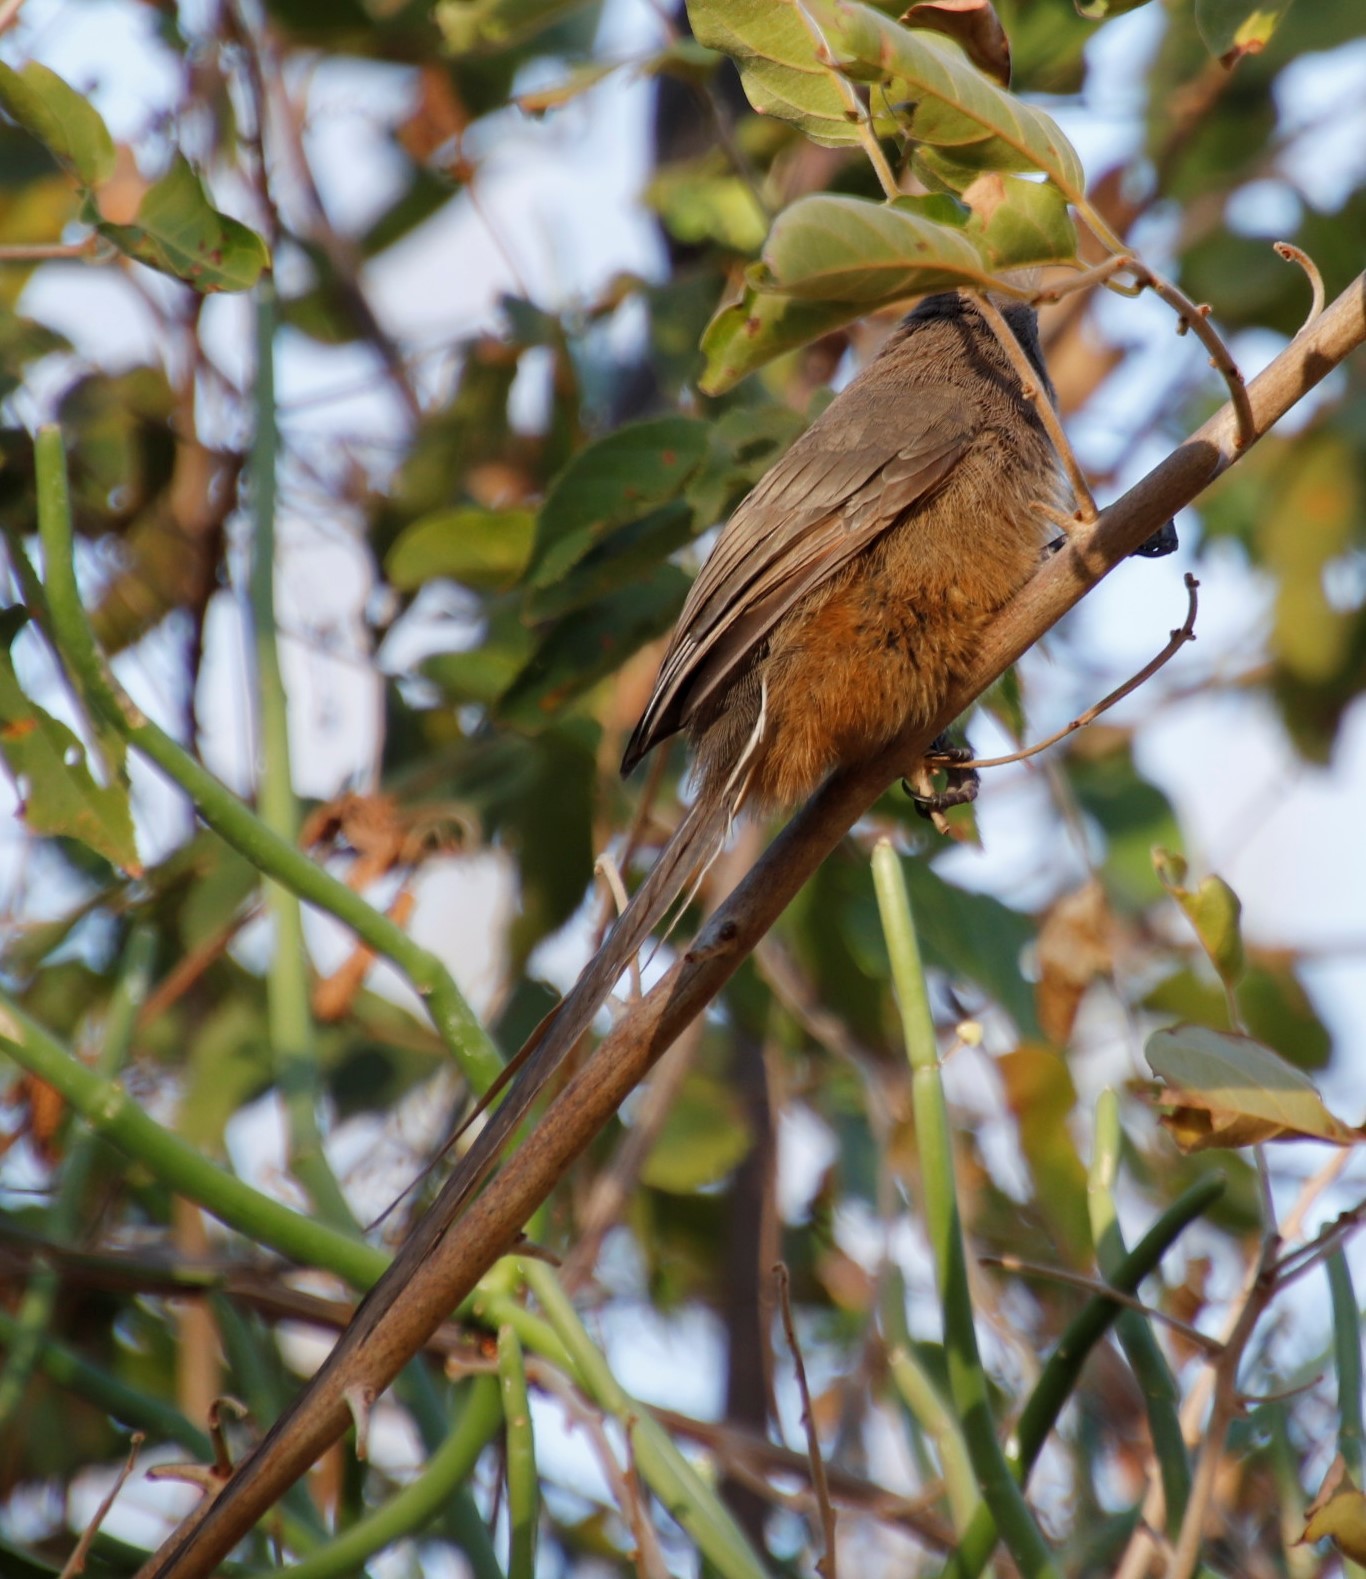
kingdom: Animalia
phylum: Chordata
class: Aves
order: Coliiformes
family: Coliidae
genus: Colius
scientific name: Colius striatus
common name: Speckled mousebird
